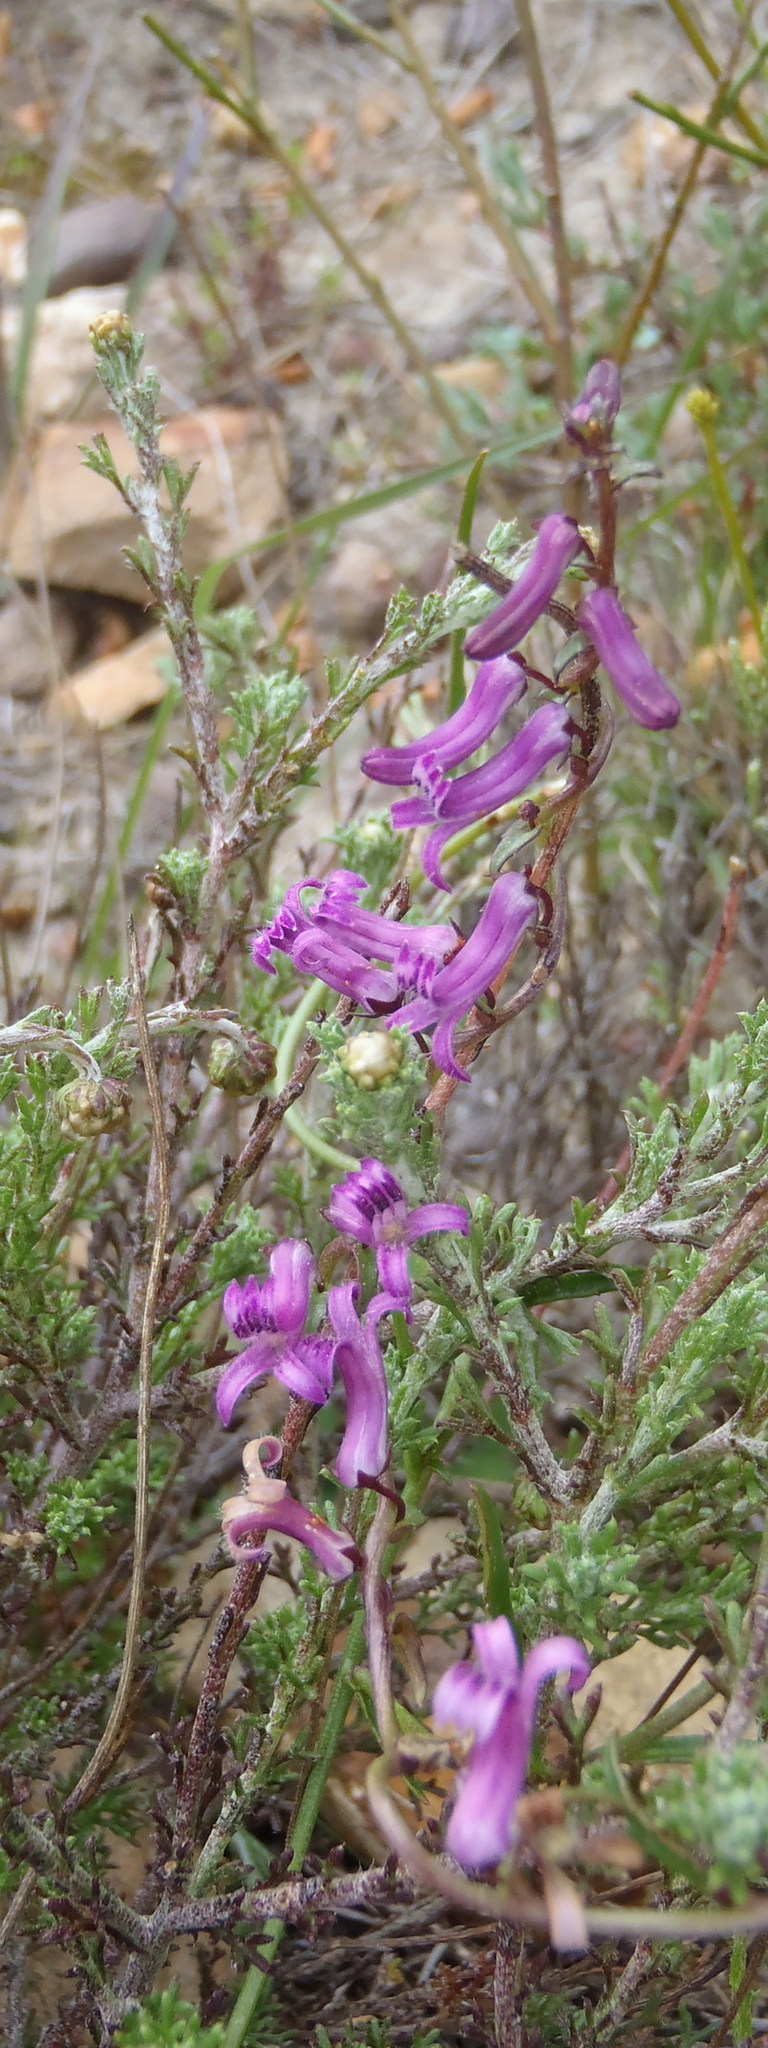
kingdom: Plantae
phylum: Tracheophyta
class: Magnoliopsida
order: Asterales
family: Campanulaceae
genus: Cyphia
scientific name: Cyphia digitata
